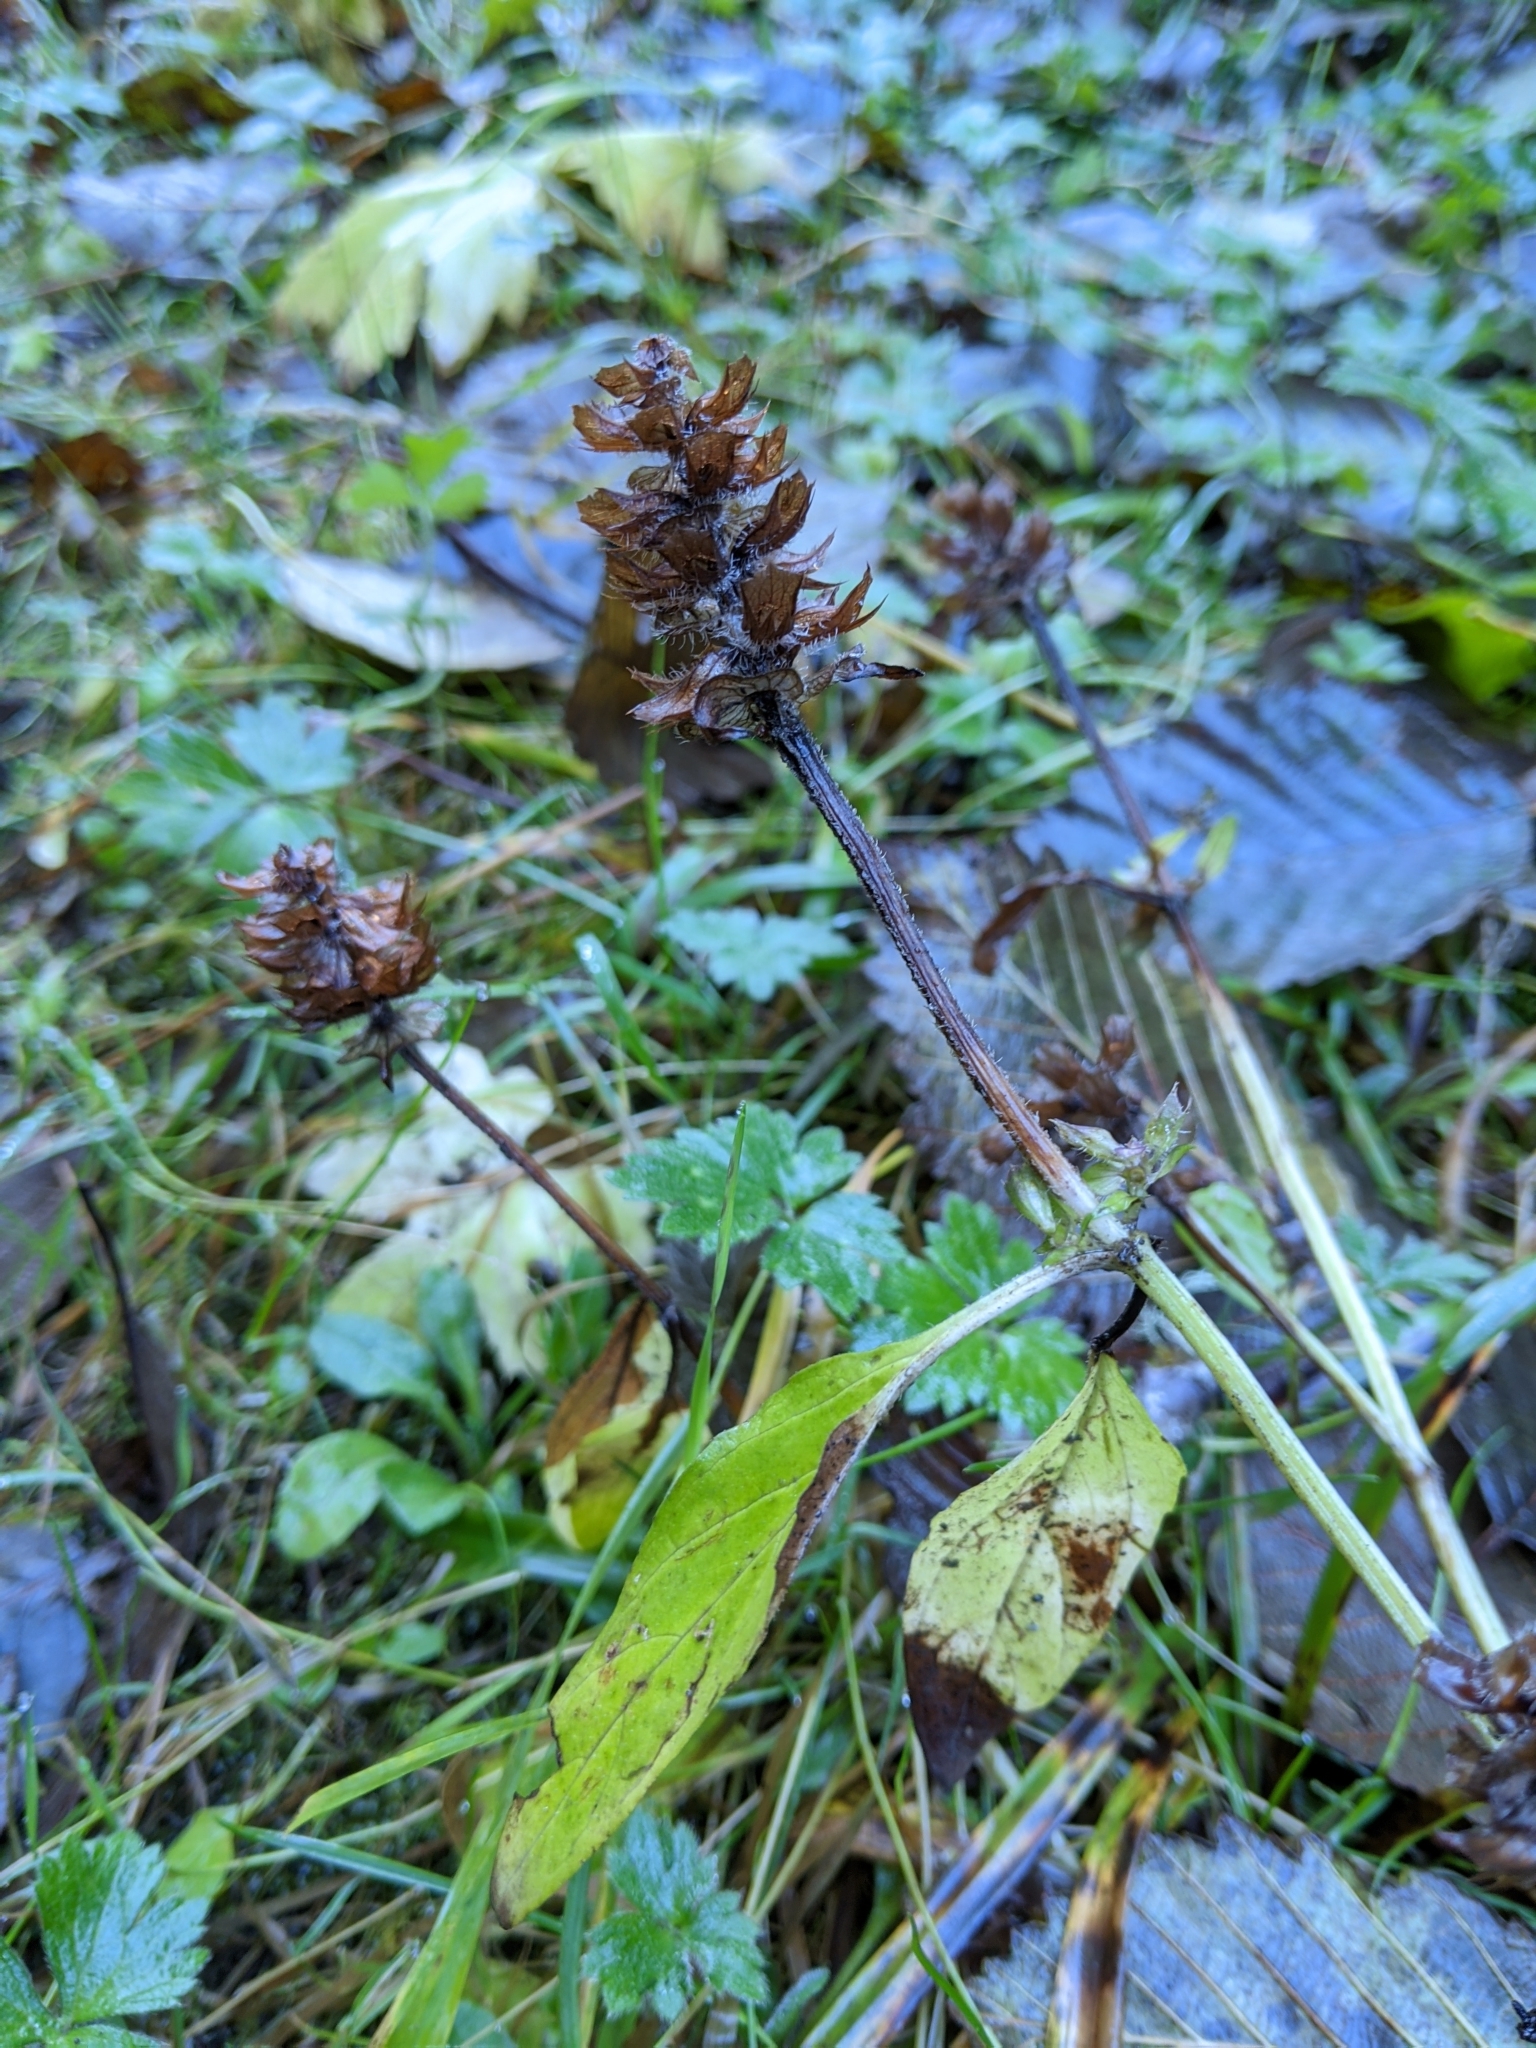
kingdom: Plantae
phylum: Tracheophyta
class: Magnoliopsida
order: Lamiales
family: Lamiaceae
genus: Prunella
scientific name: Prunella vulgaris
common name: Heal-all
